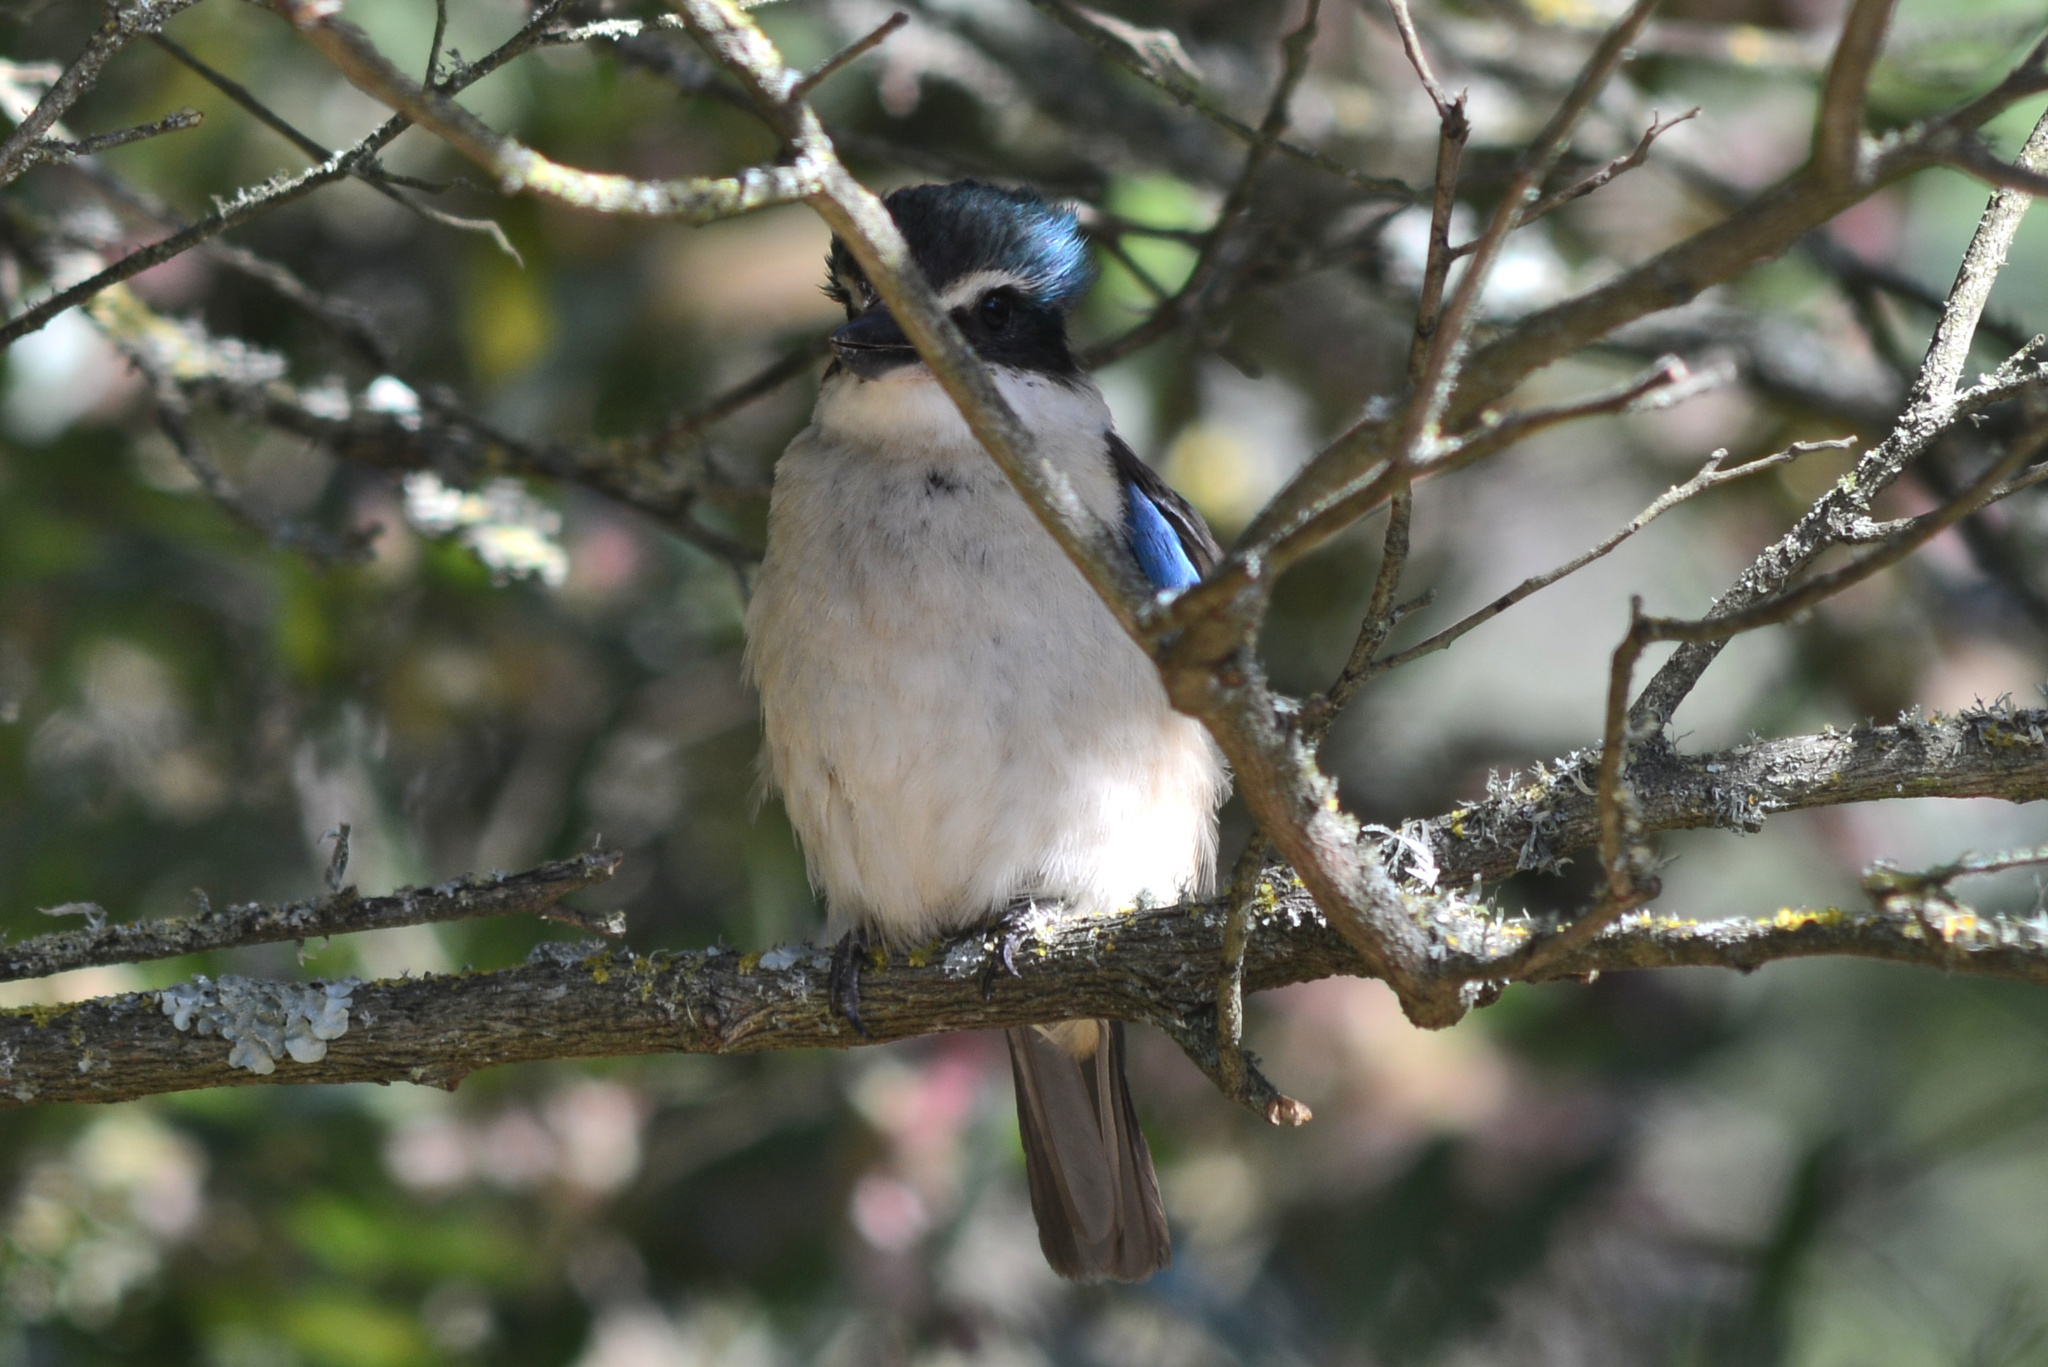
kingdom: Animalia
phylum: Chordata
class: Aves
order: Coraciiformes
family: Alcedinidae
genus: Todiramphus
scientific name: Todiramphus sanctus
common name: Sacred kingfisher
